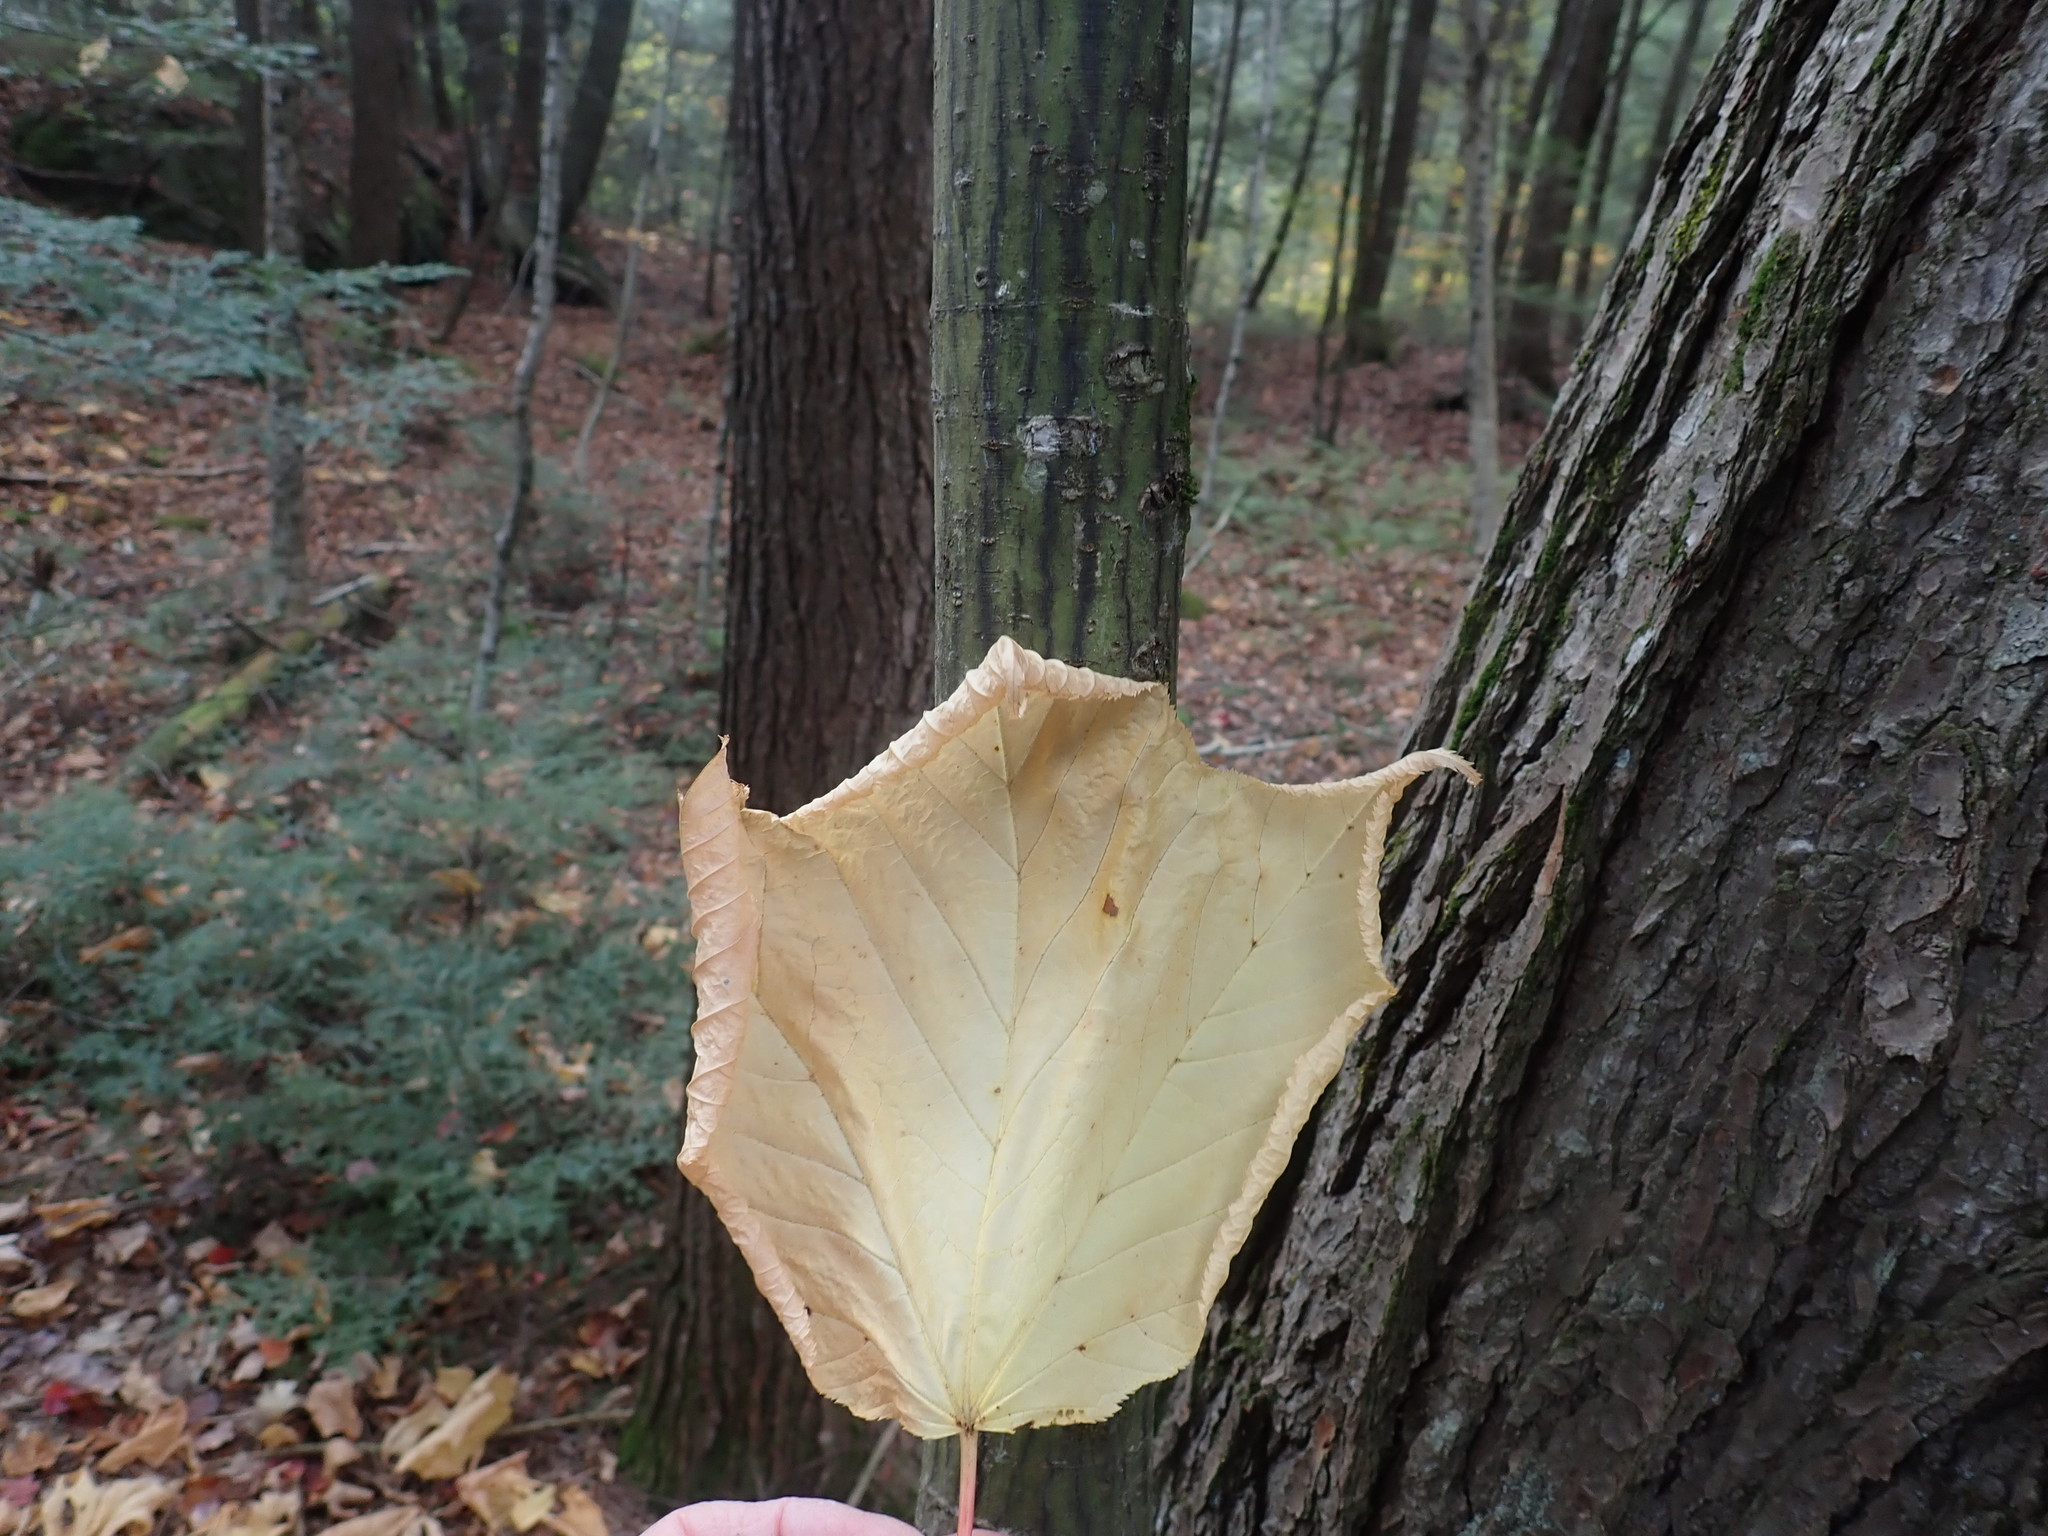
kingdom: Plantae
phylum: Tracheophyta
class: Magnoliopsida
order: Sapindales
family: Sapindaceae
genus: Acer
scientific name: Acer pensylvanicum
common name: Moosewood
